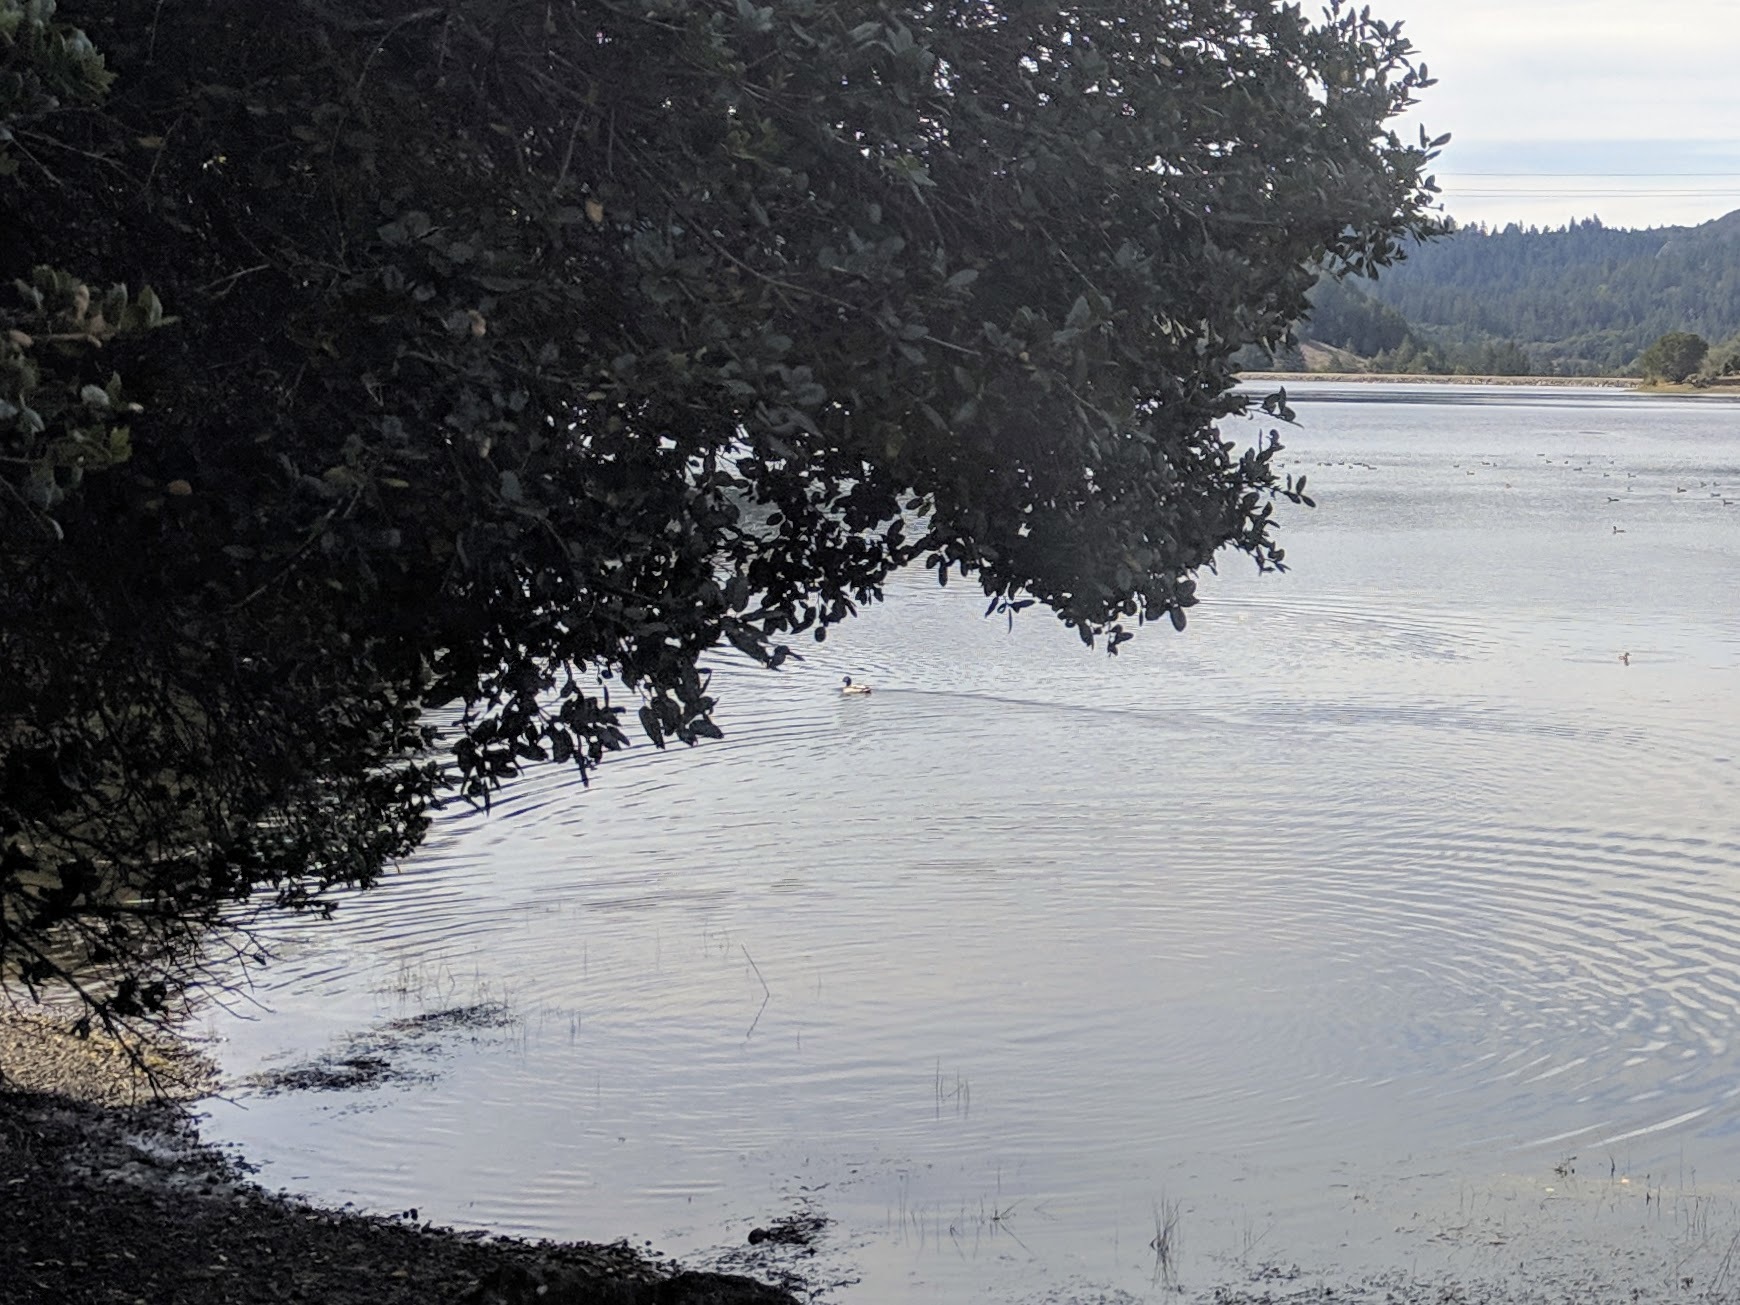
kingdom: Animalia
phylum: Chordata
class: Aves
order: Anseriformes
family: Anatidae
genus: Anas
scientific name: Anas platyrhynchos
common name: Mallard
